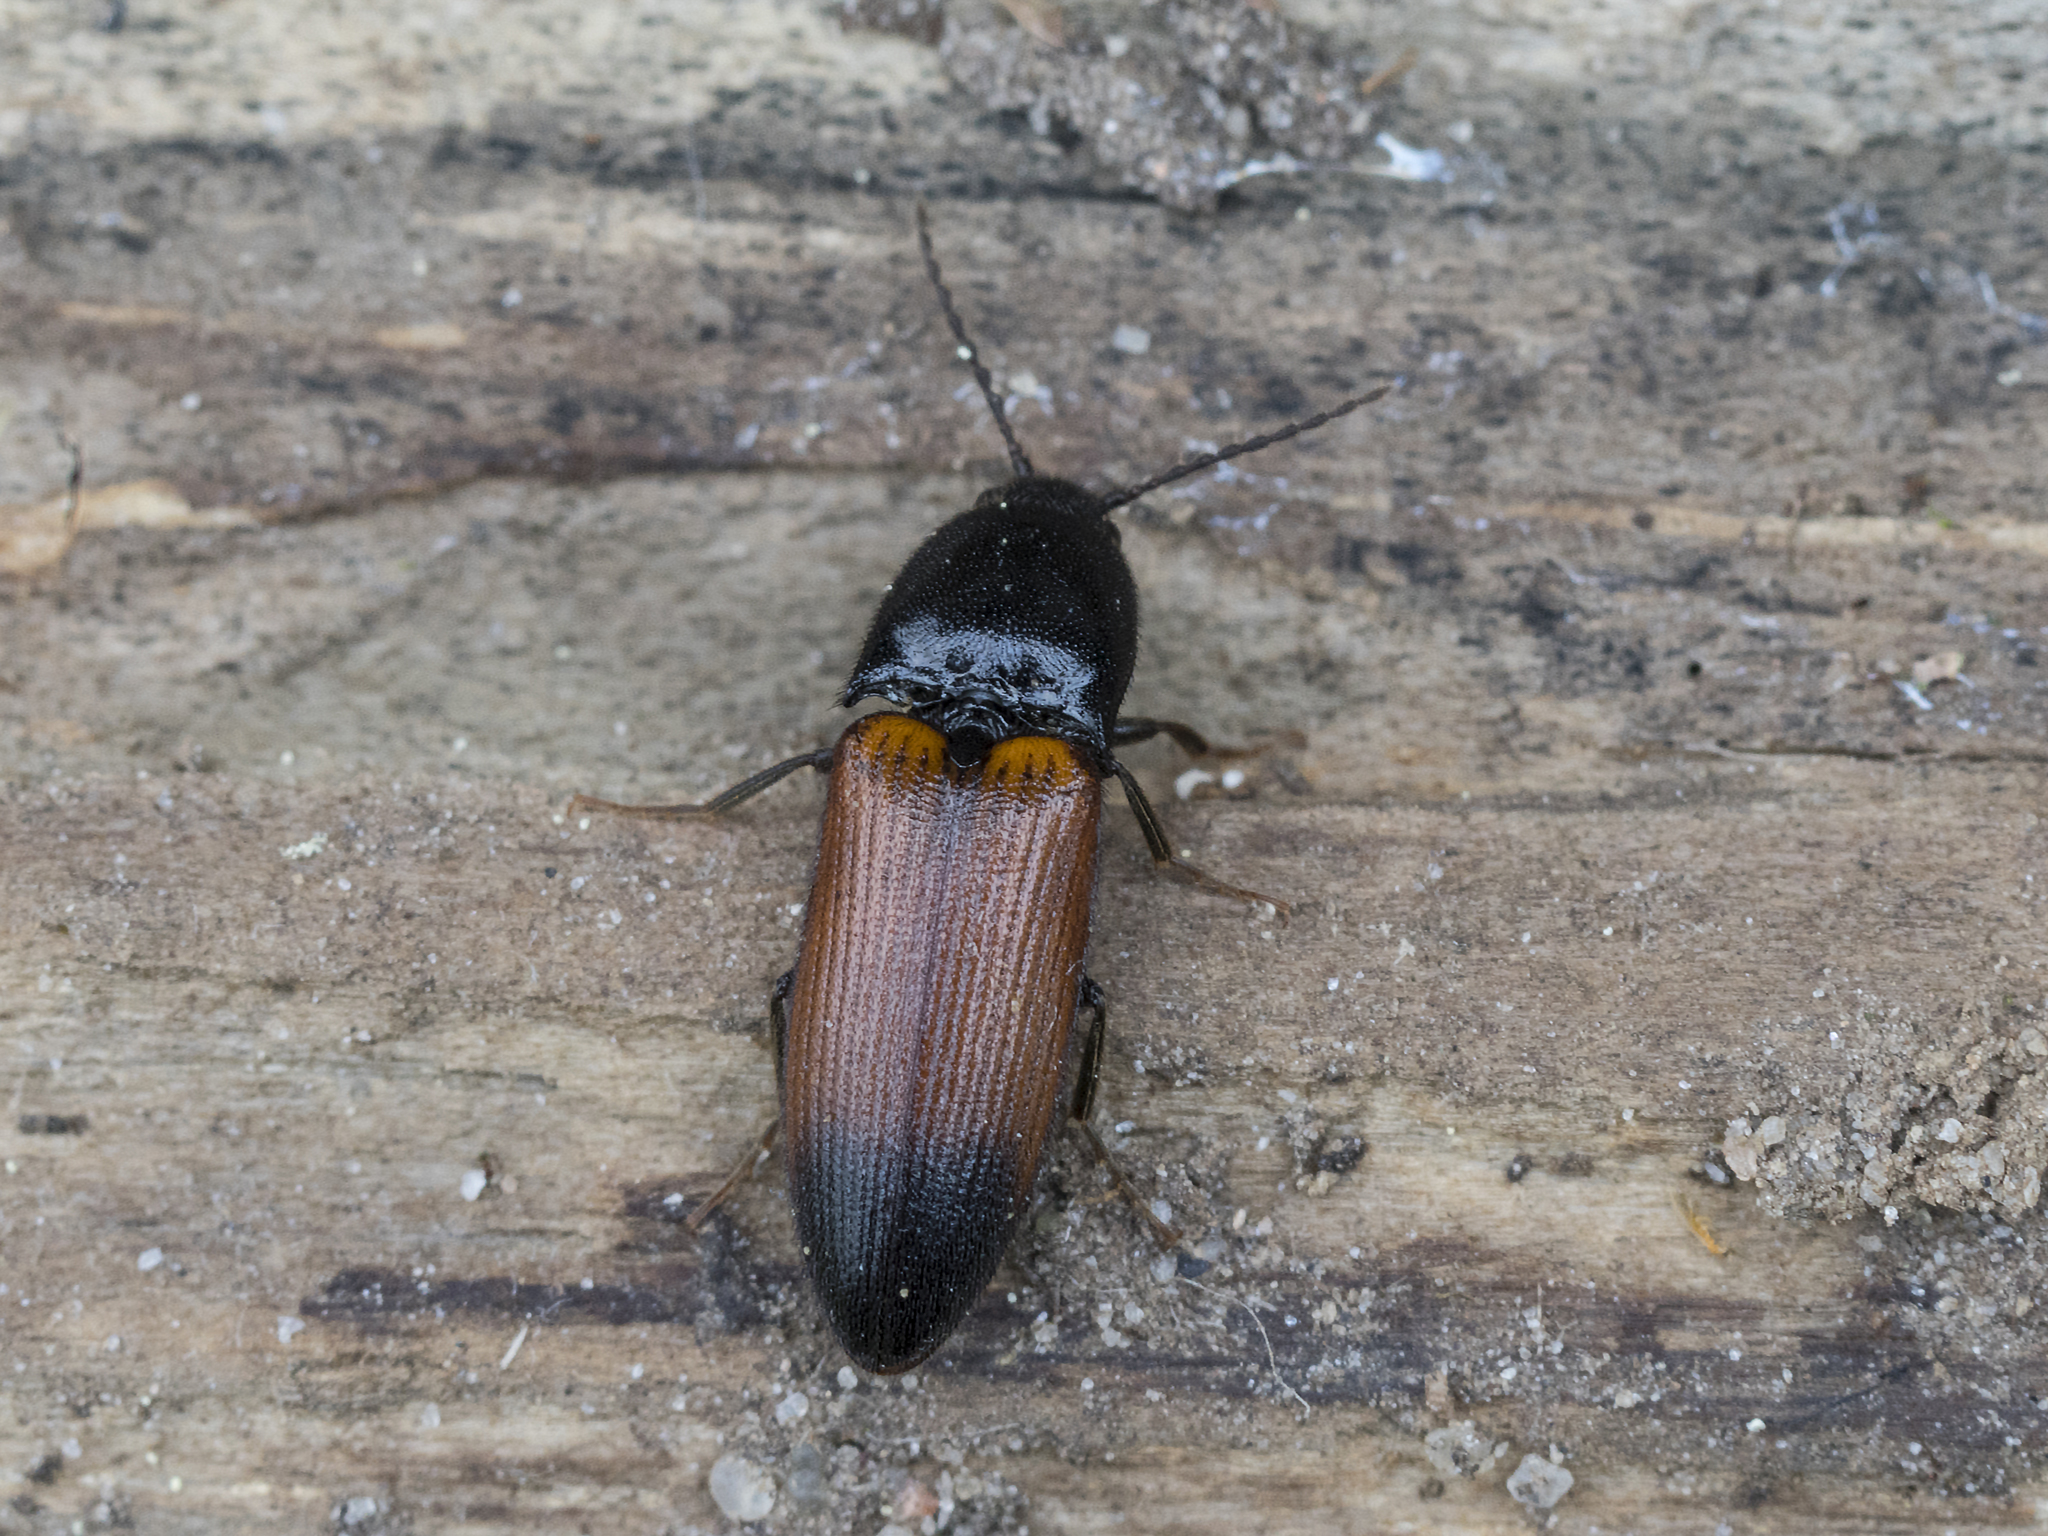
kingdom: Animalia
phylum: Arthropoda
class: Insecta
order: Coleoptera
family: Elateridae
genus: Ampedus
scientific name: Ampedus balteatus
